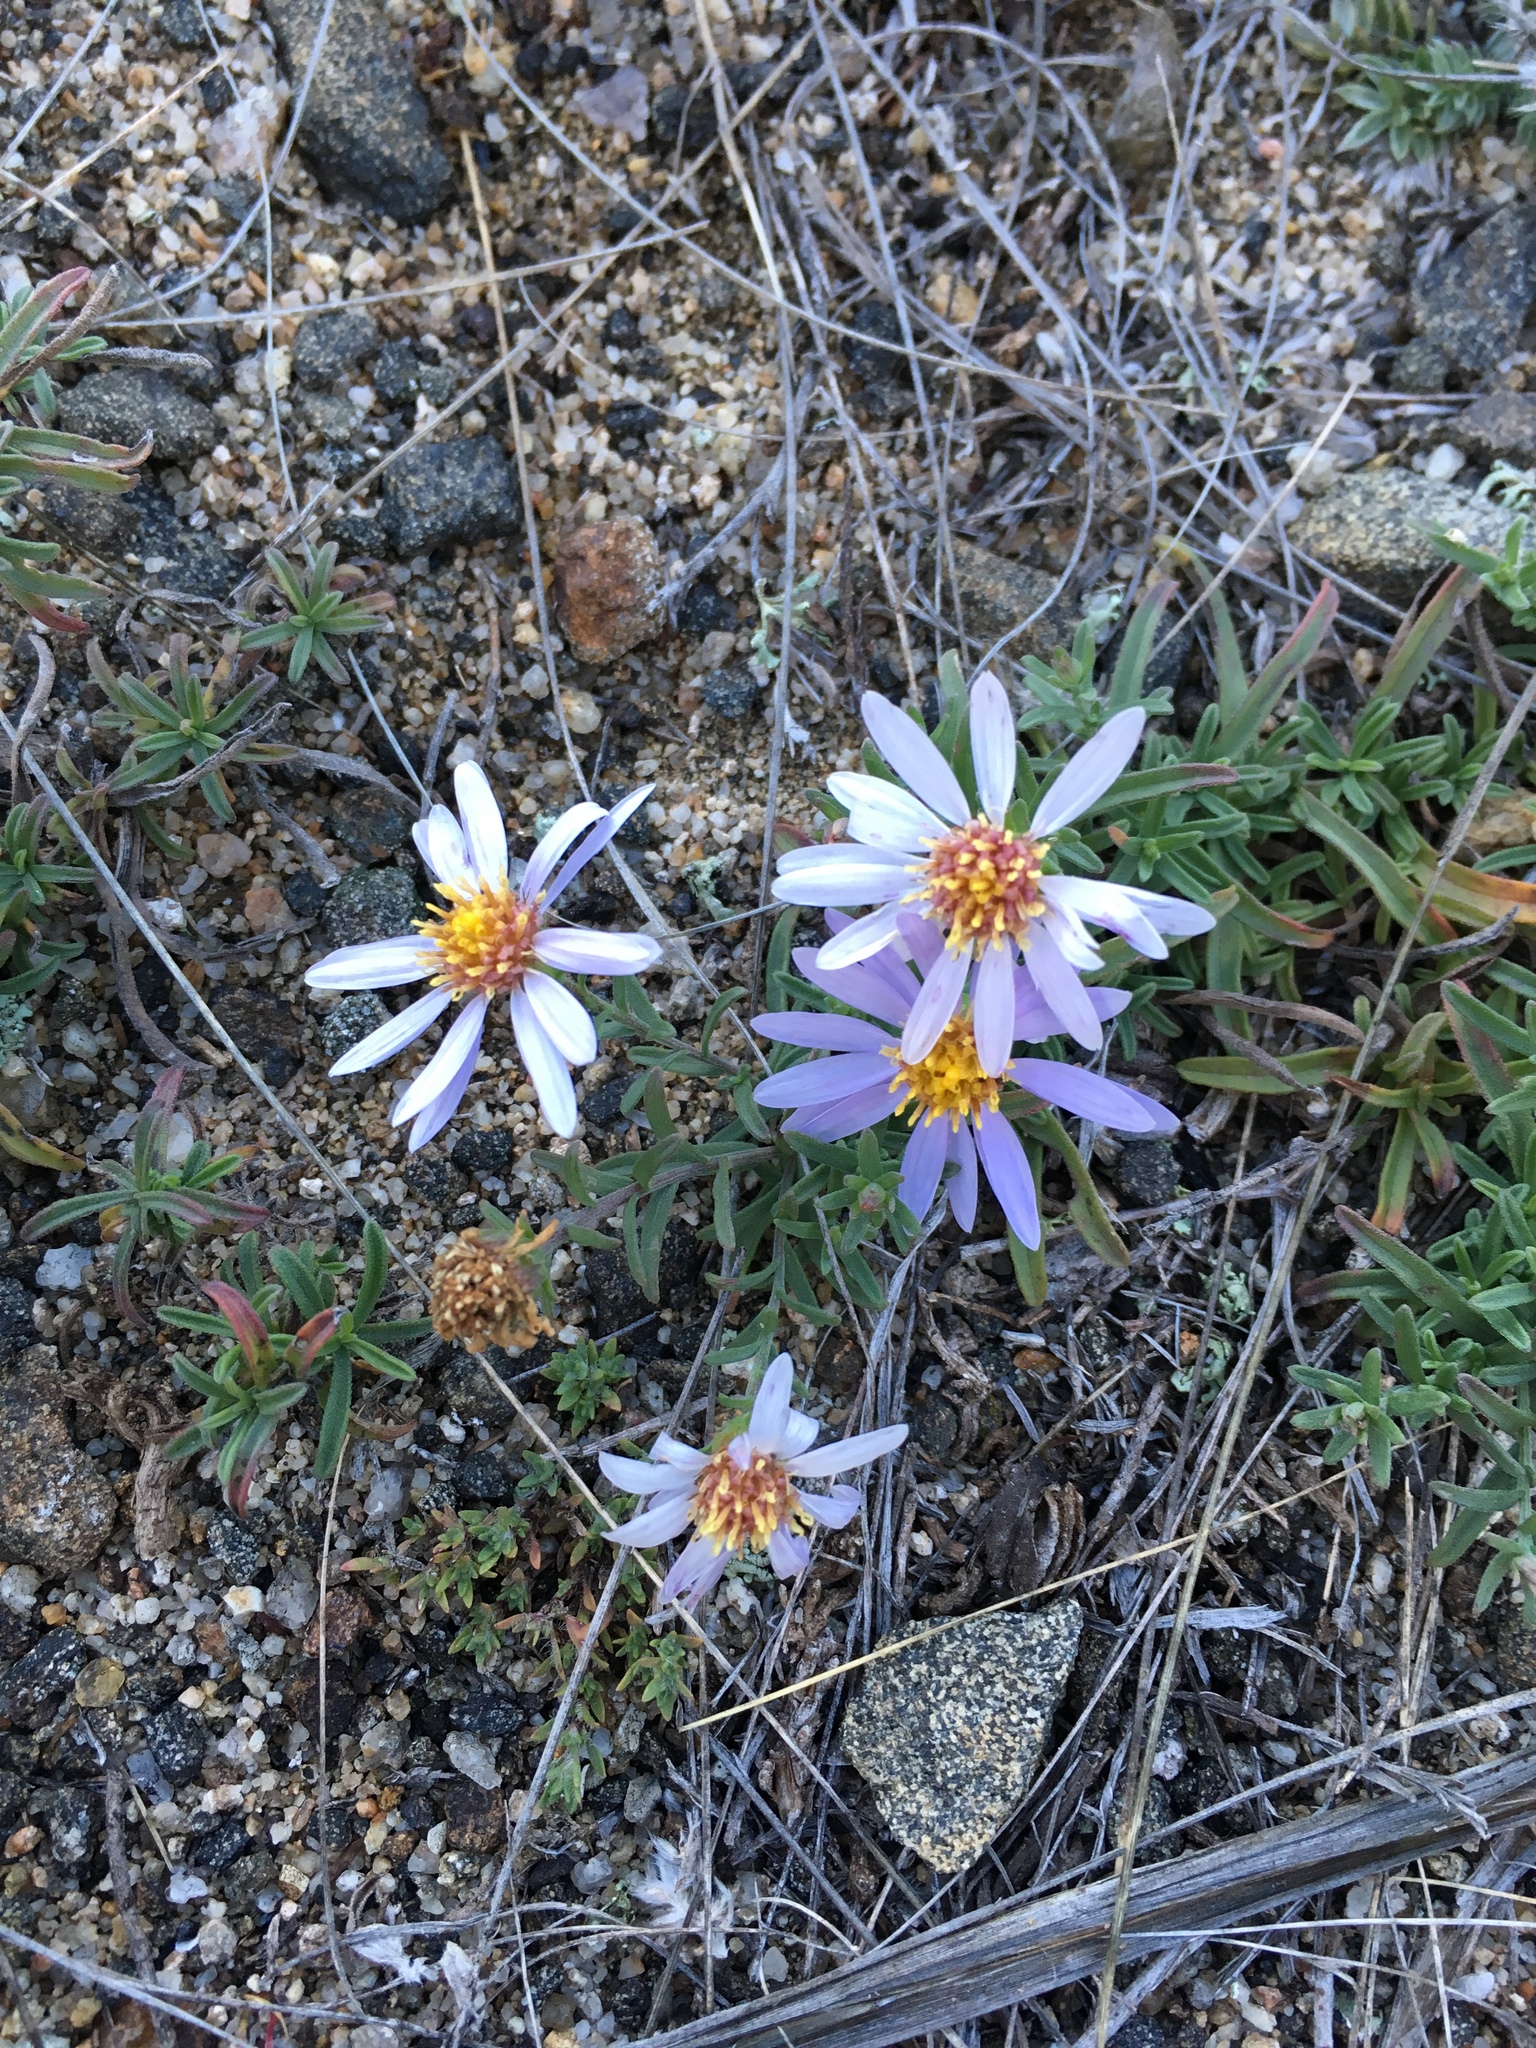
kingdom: Plantae
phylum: Tracheophyta
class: Magnoliopsida
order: Asterales
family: Asteraceae
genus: Heteropappus
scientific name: Heteropappus altaicus
